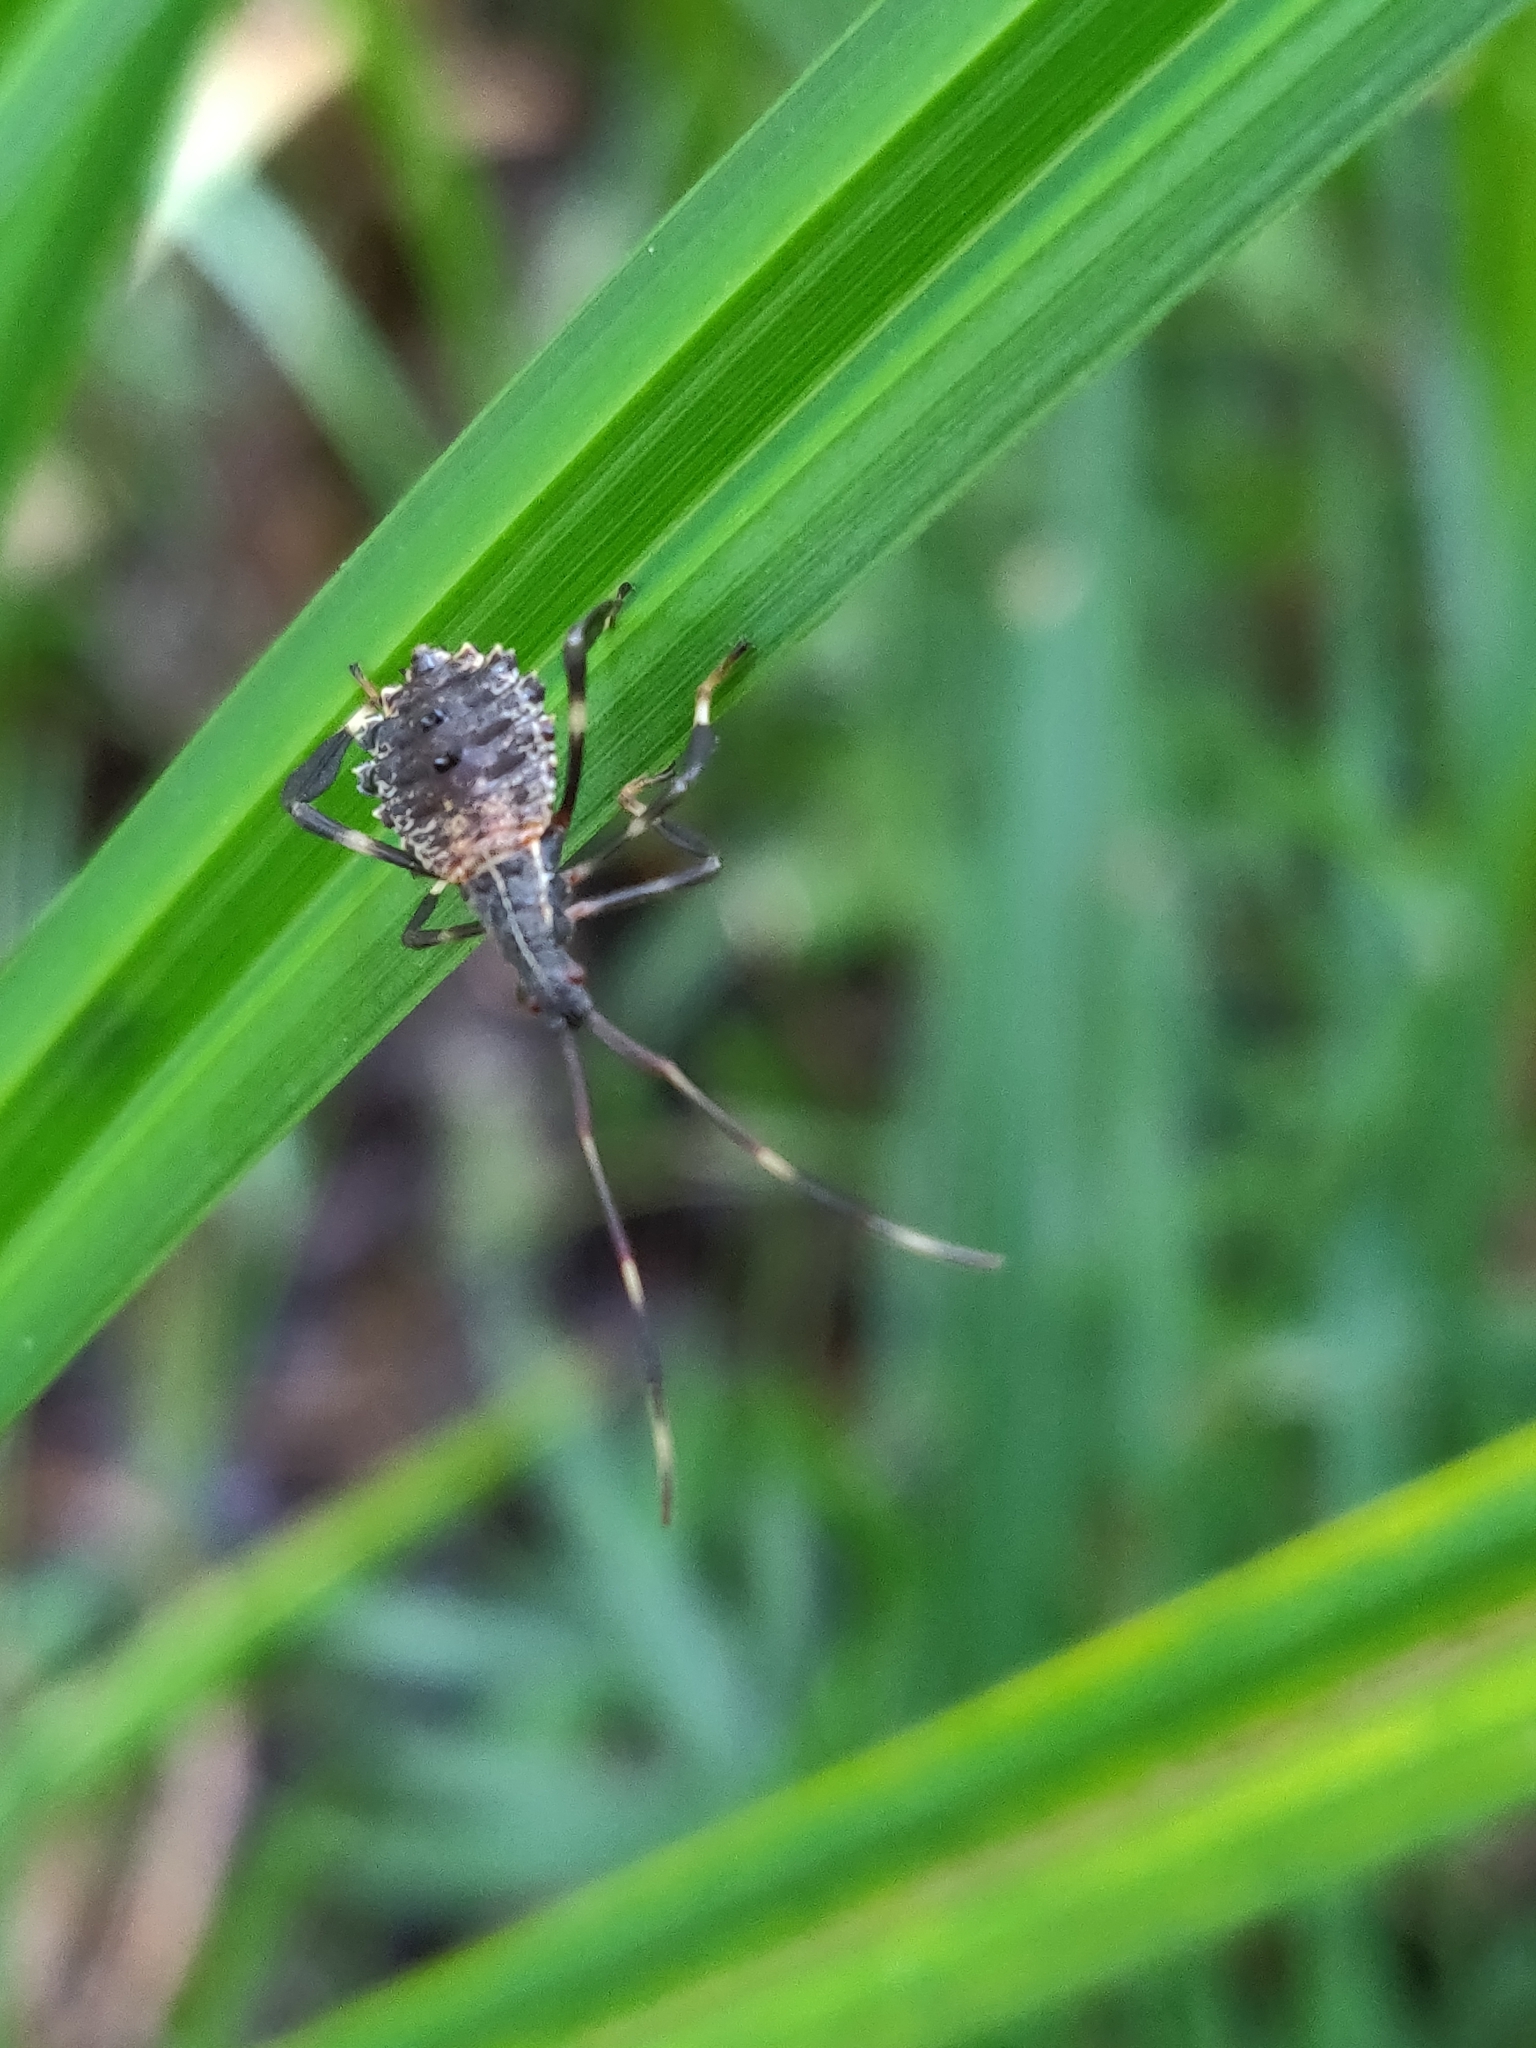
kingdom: Animalia
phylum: Arthropoda
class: Insecta
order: Hemiptera
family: Coreidae
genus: Acanthocephala
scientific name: Acanthocephala terminalis
